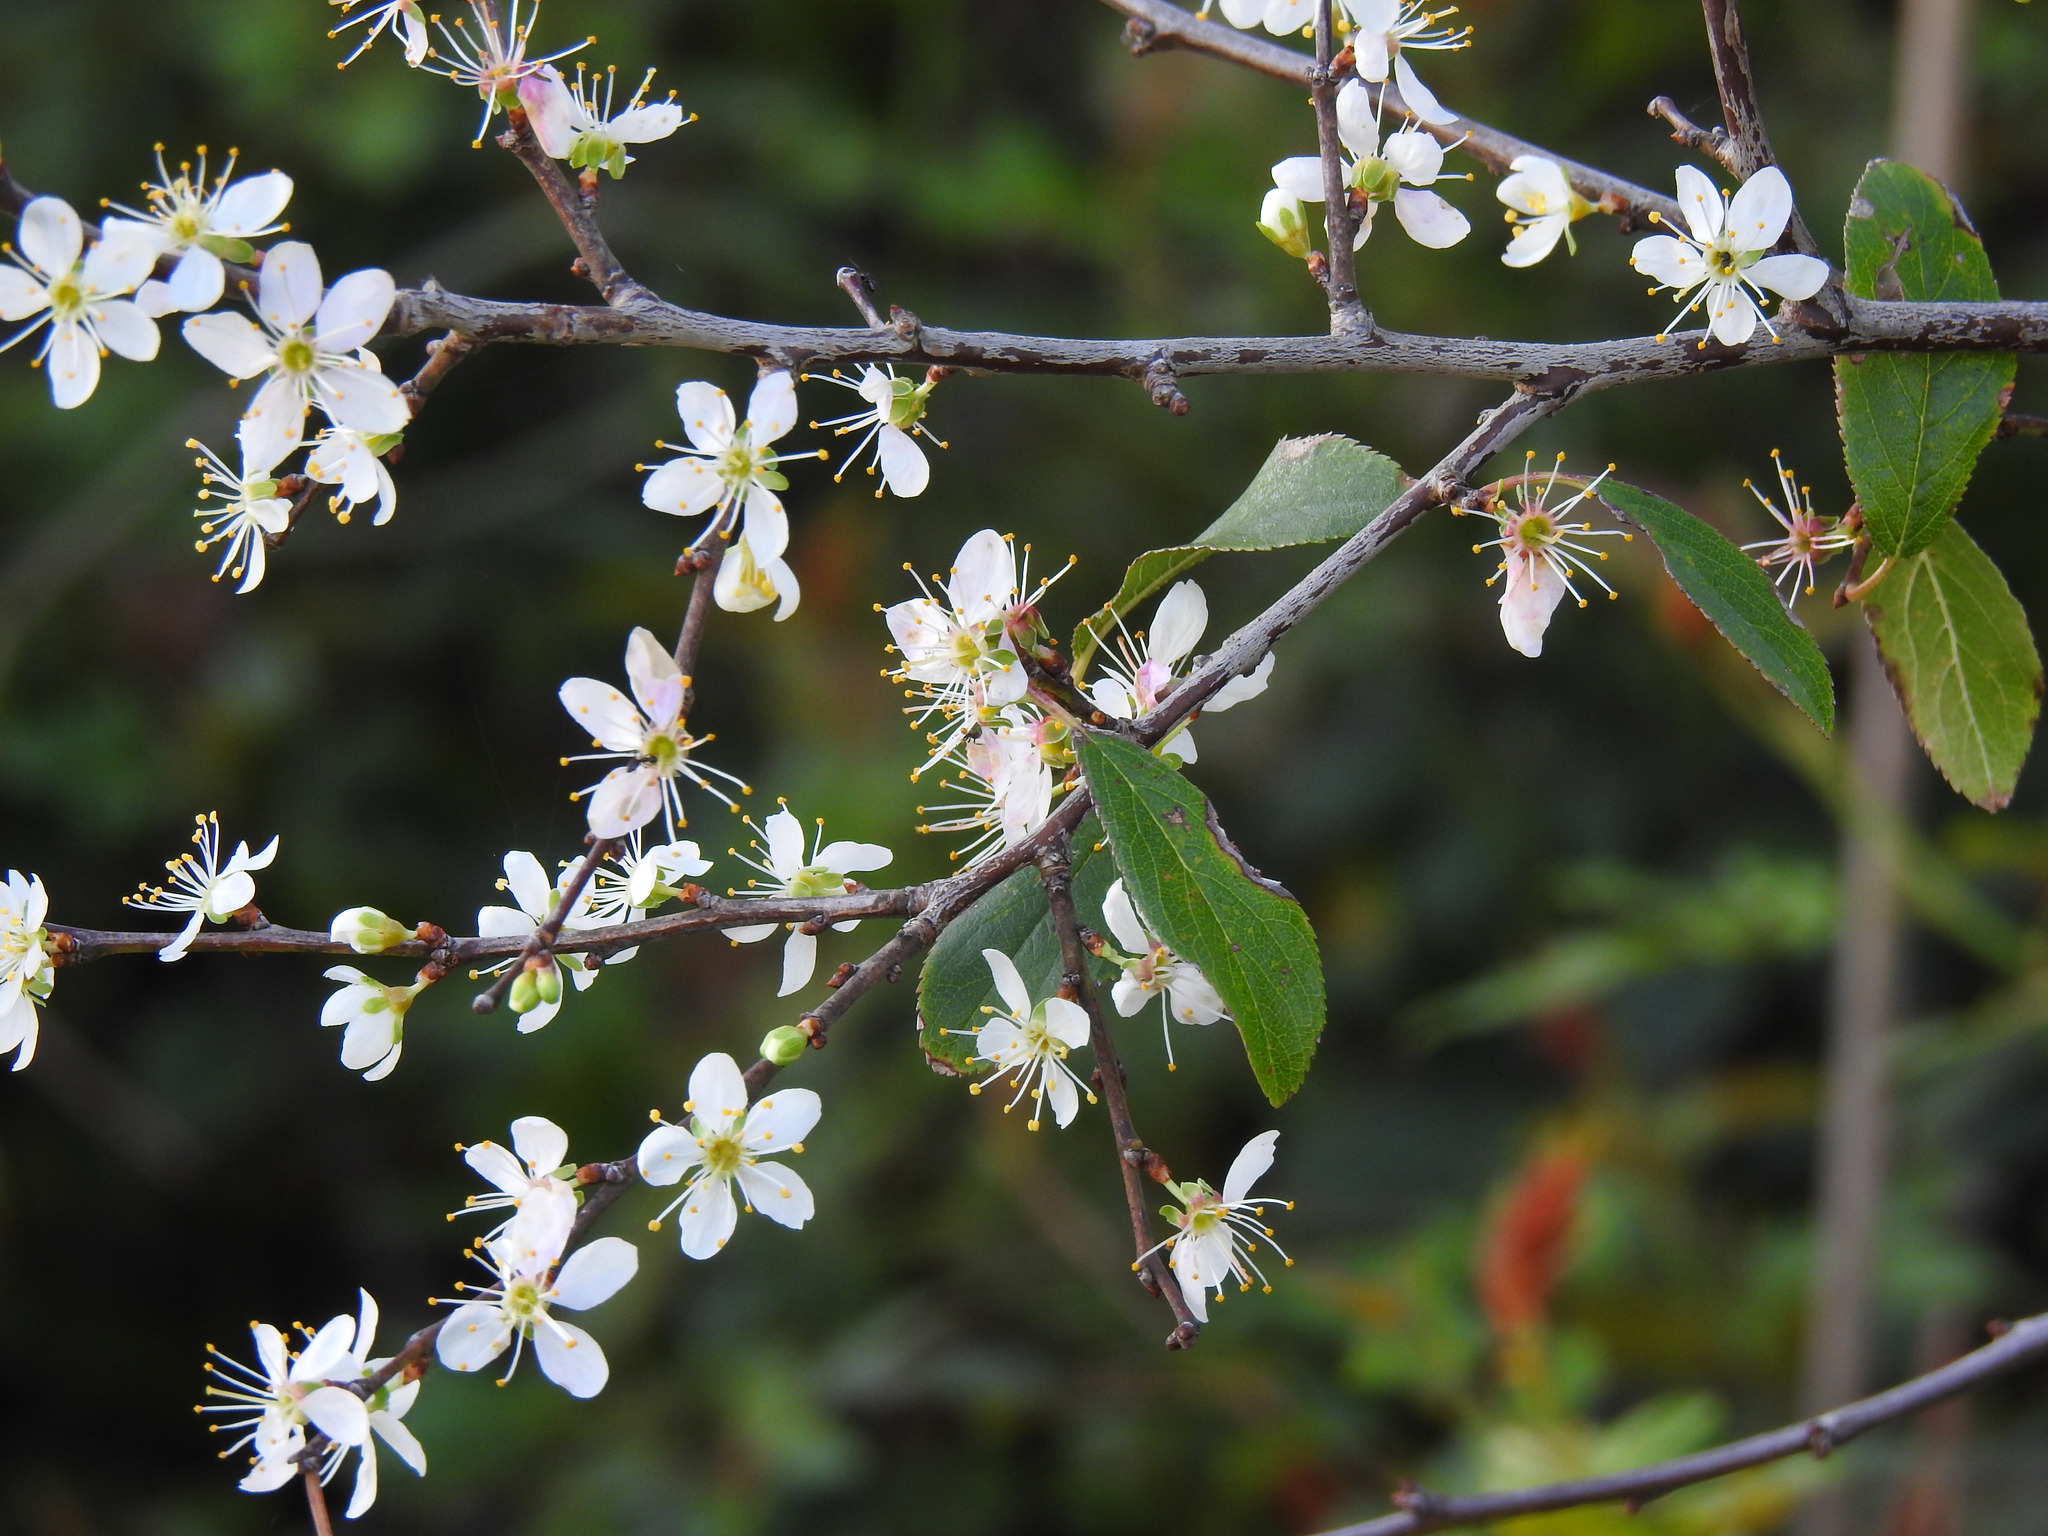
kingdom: Plantae
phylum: Tracheophyta
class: Magnoliopsida
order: Rosales
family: Rosaceae
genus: Prunus
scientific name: Prunus spinosa
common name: Blackthorn
